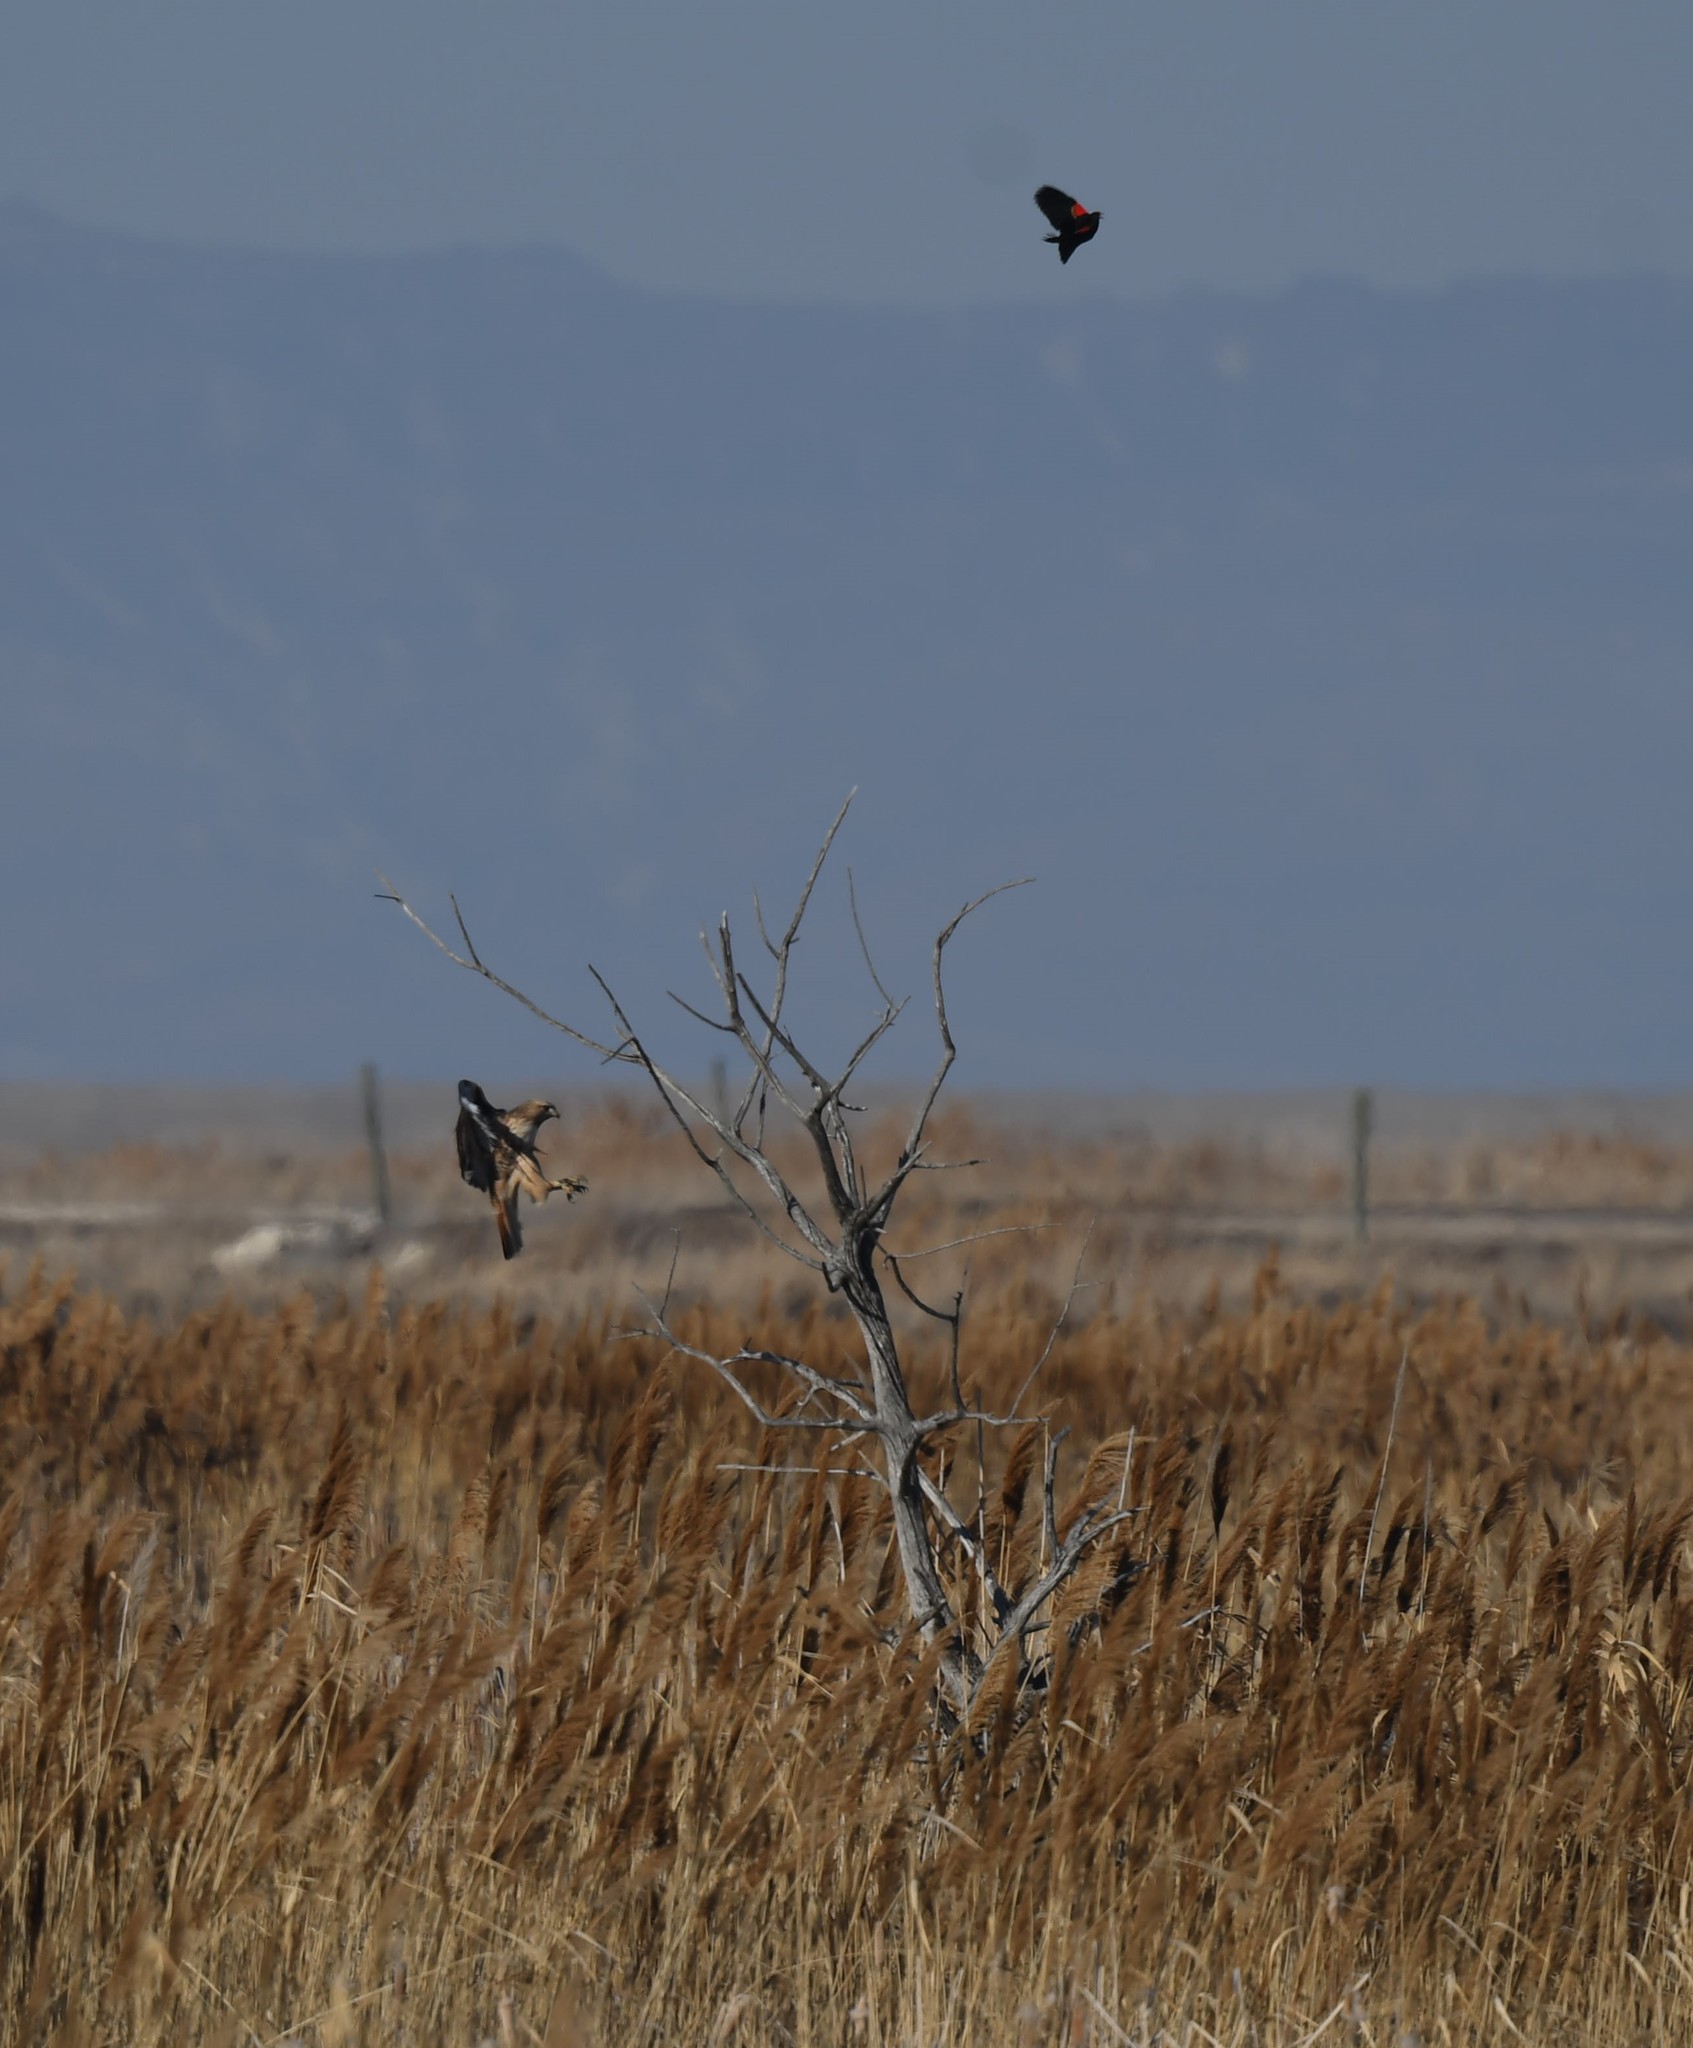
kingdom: Animalia
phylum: Chordata
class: Aves
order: Accipitriformes
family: Accipitridae
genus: Buteo
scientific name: Buteo jamaicensis
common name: Red-tailed hawk
